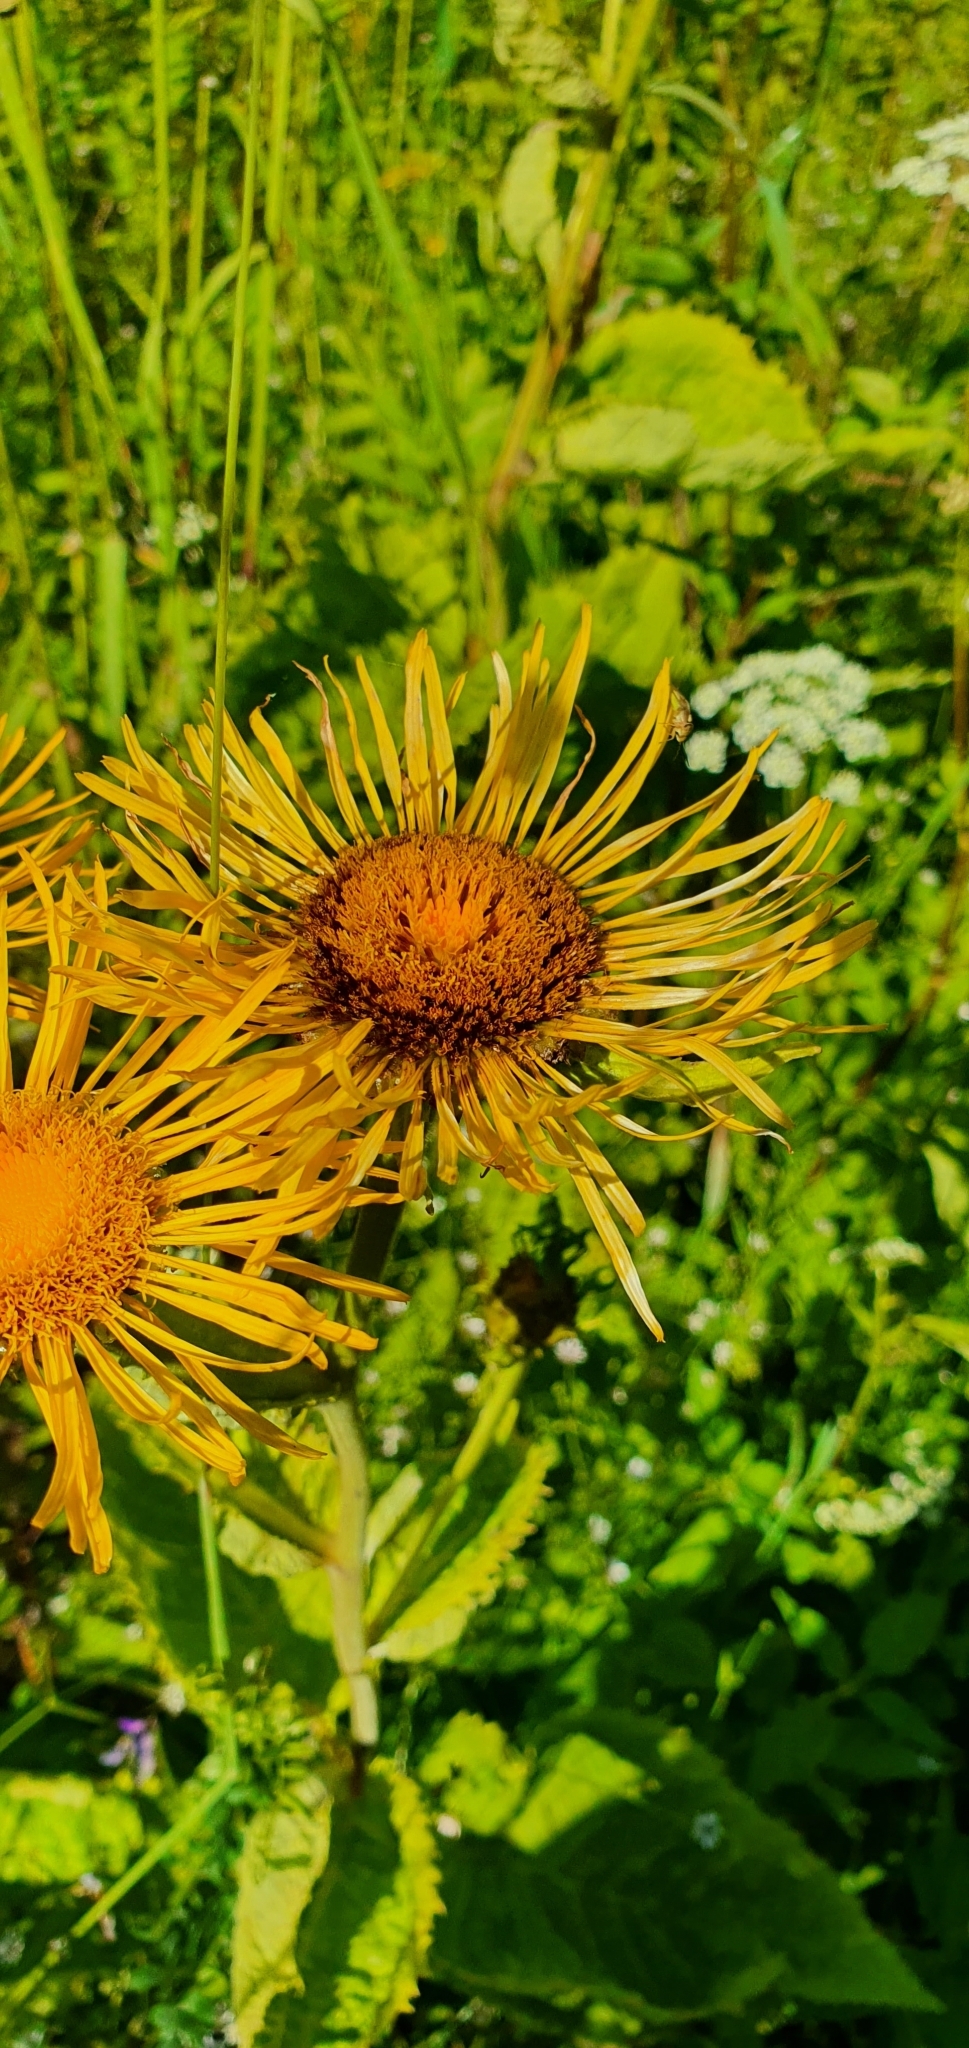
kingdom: Plantae
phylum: Tracheophyta
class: Magnoliopsida
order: Asterales
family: Asteraceae
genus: Telekia
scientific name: Telekia speciosa
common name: Yellow oxeye
